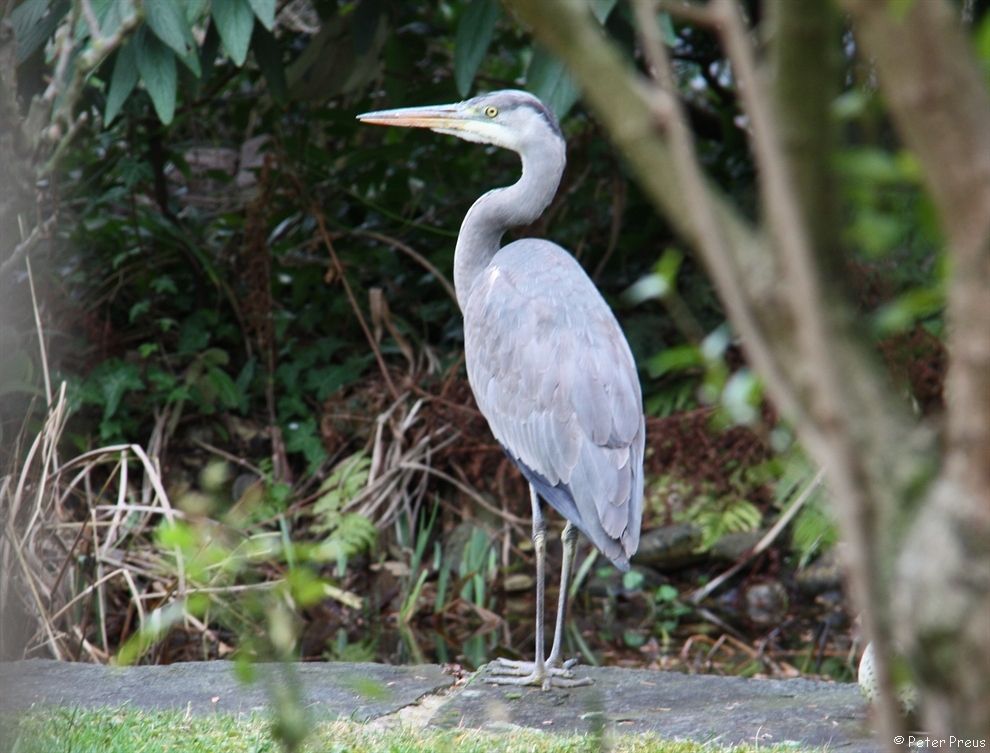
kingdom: Animalia
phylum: Chordata
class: Aves
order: Pelecaniformes
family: Ardeidae
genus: Ardea
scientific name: Ardea cinerea
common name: Grey heron
